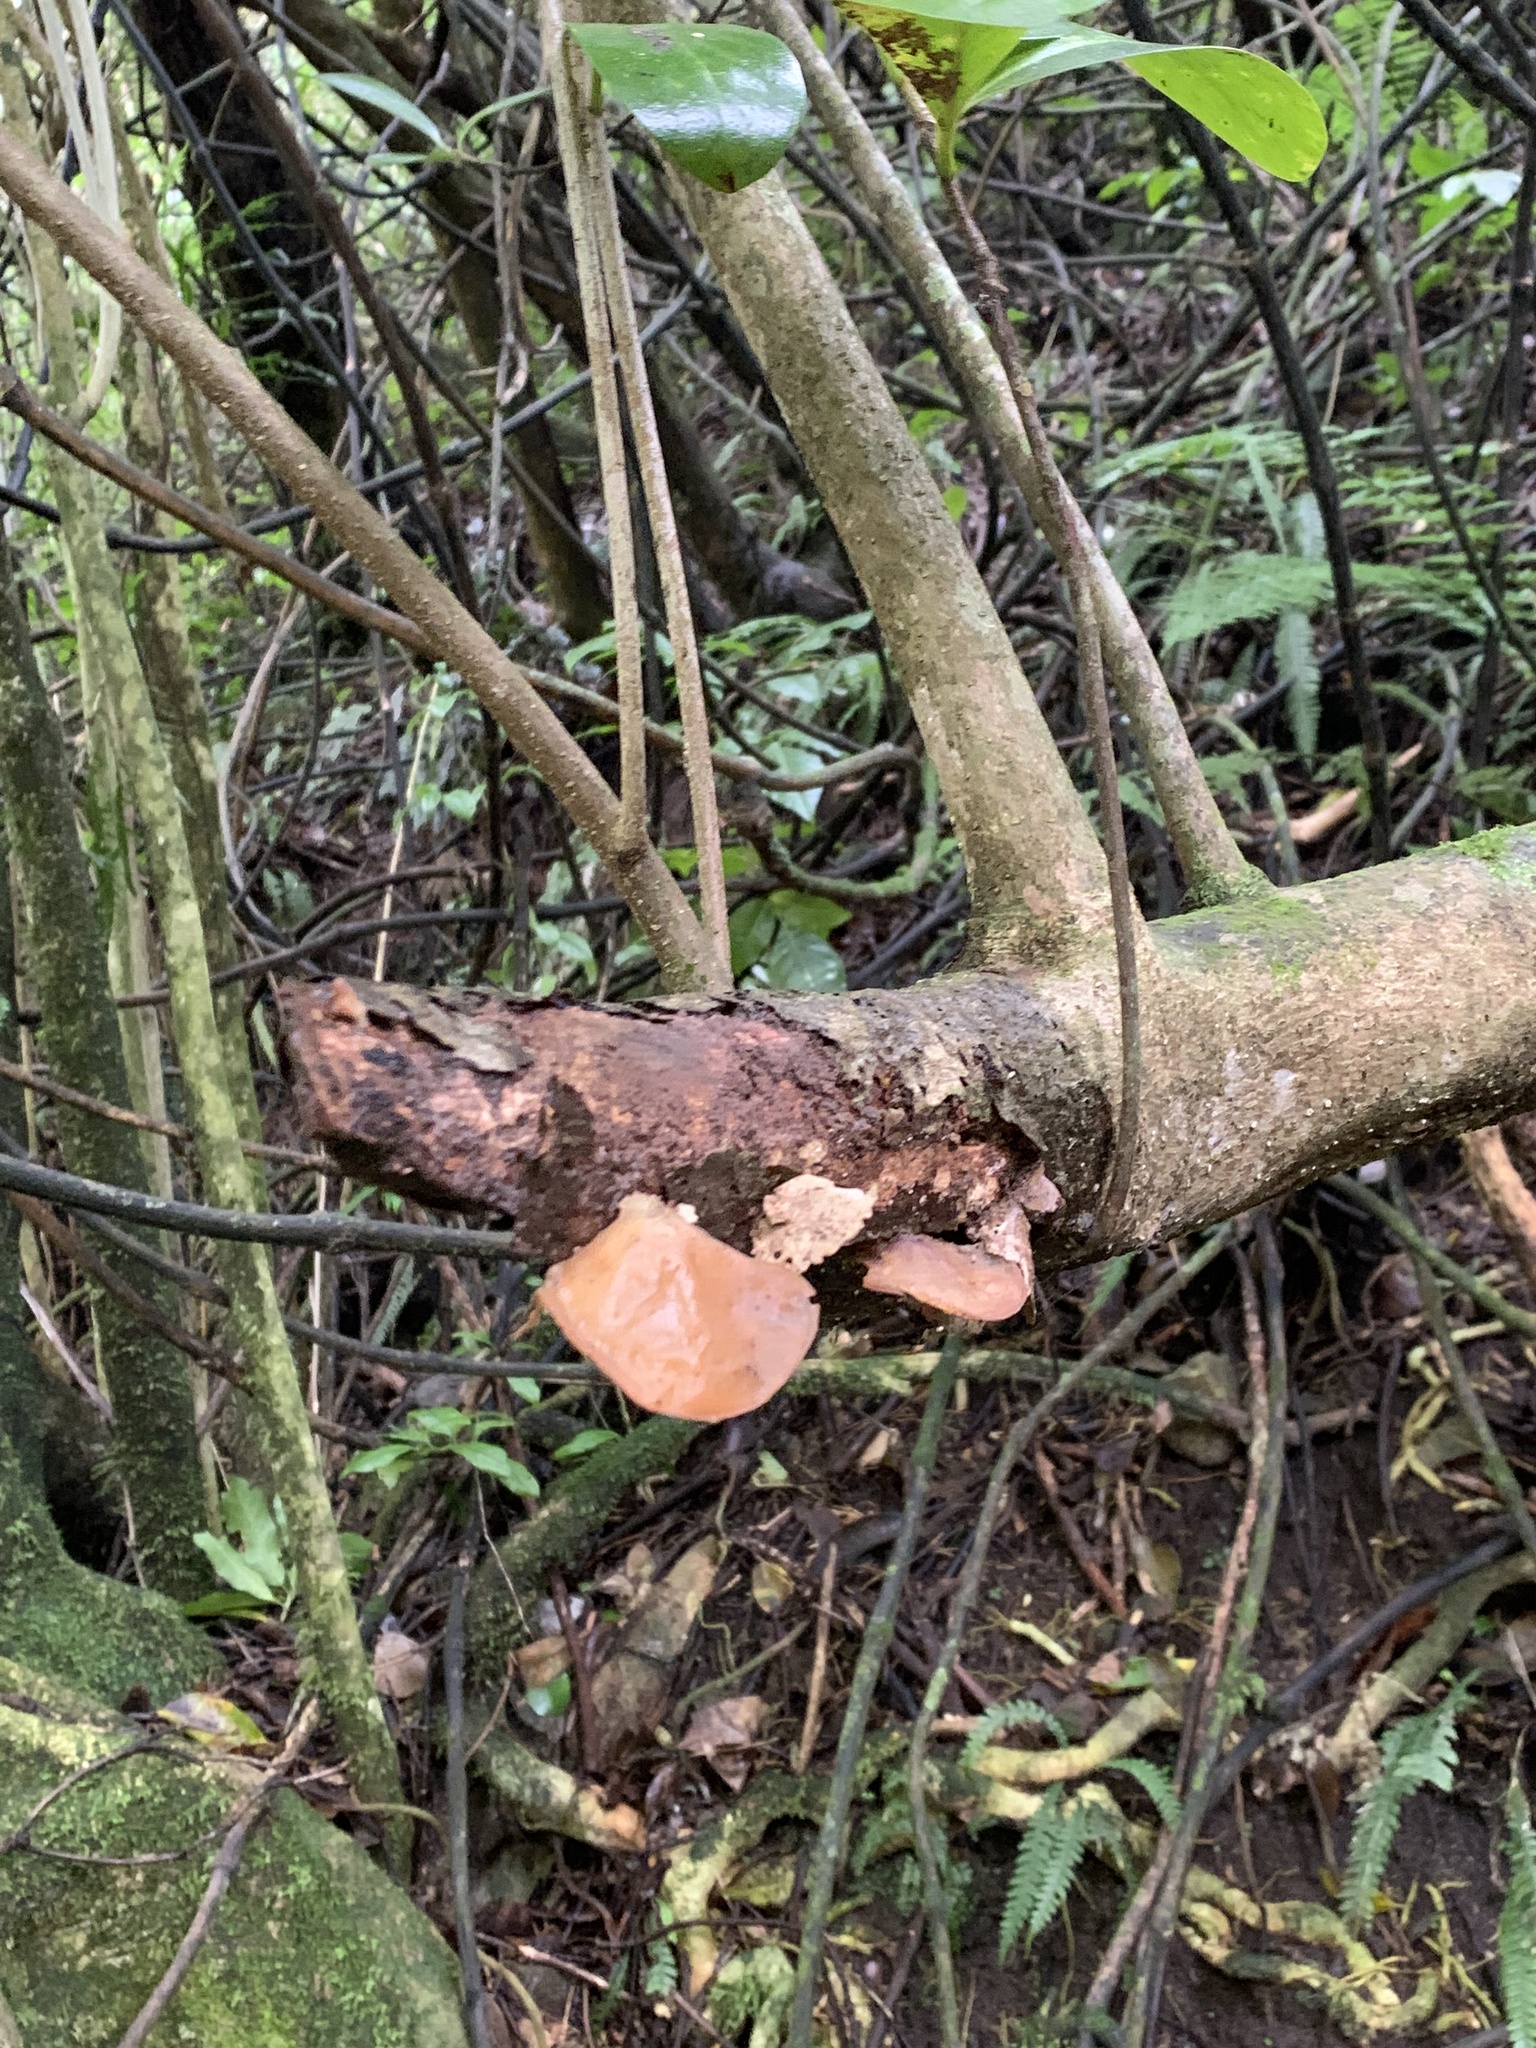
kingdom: Fungi
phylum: Basidiomycota
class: Agaricomycetes
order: Auriculariales
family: Auriculariaceae
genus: Auricularia
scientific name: Auricularia cornea
